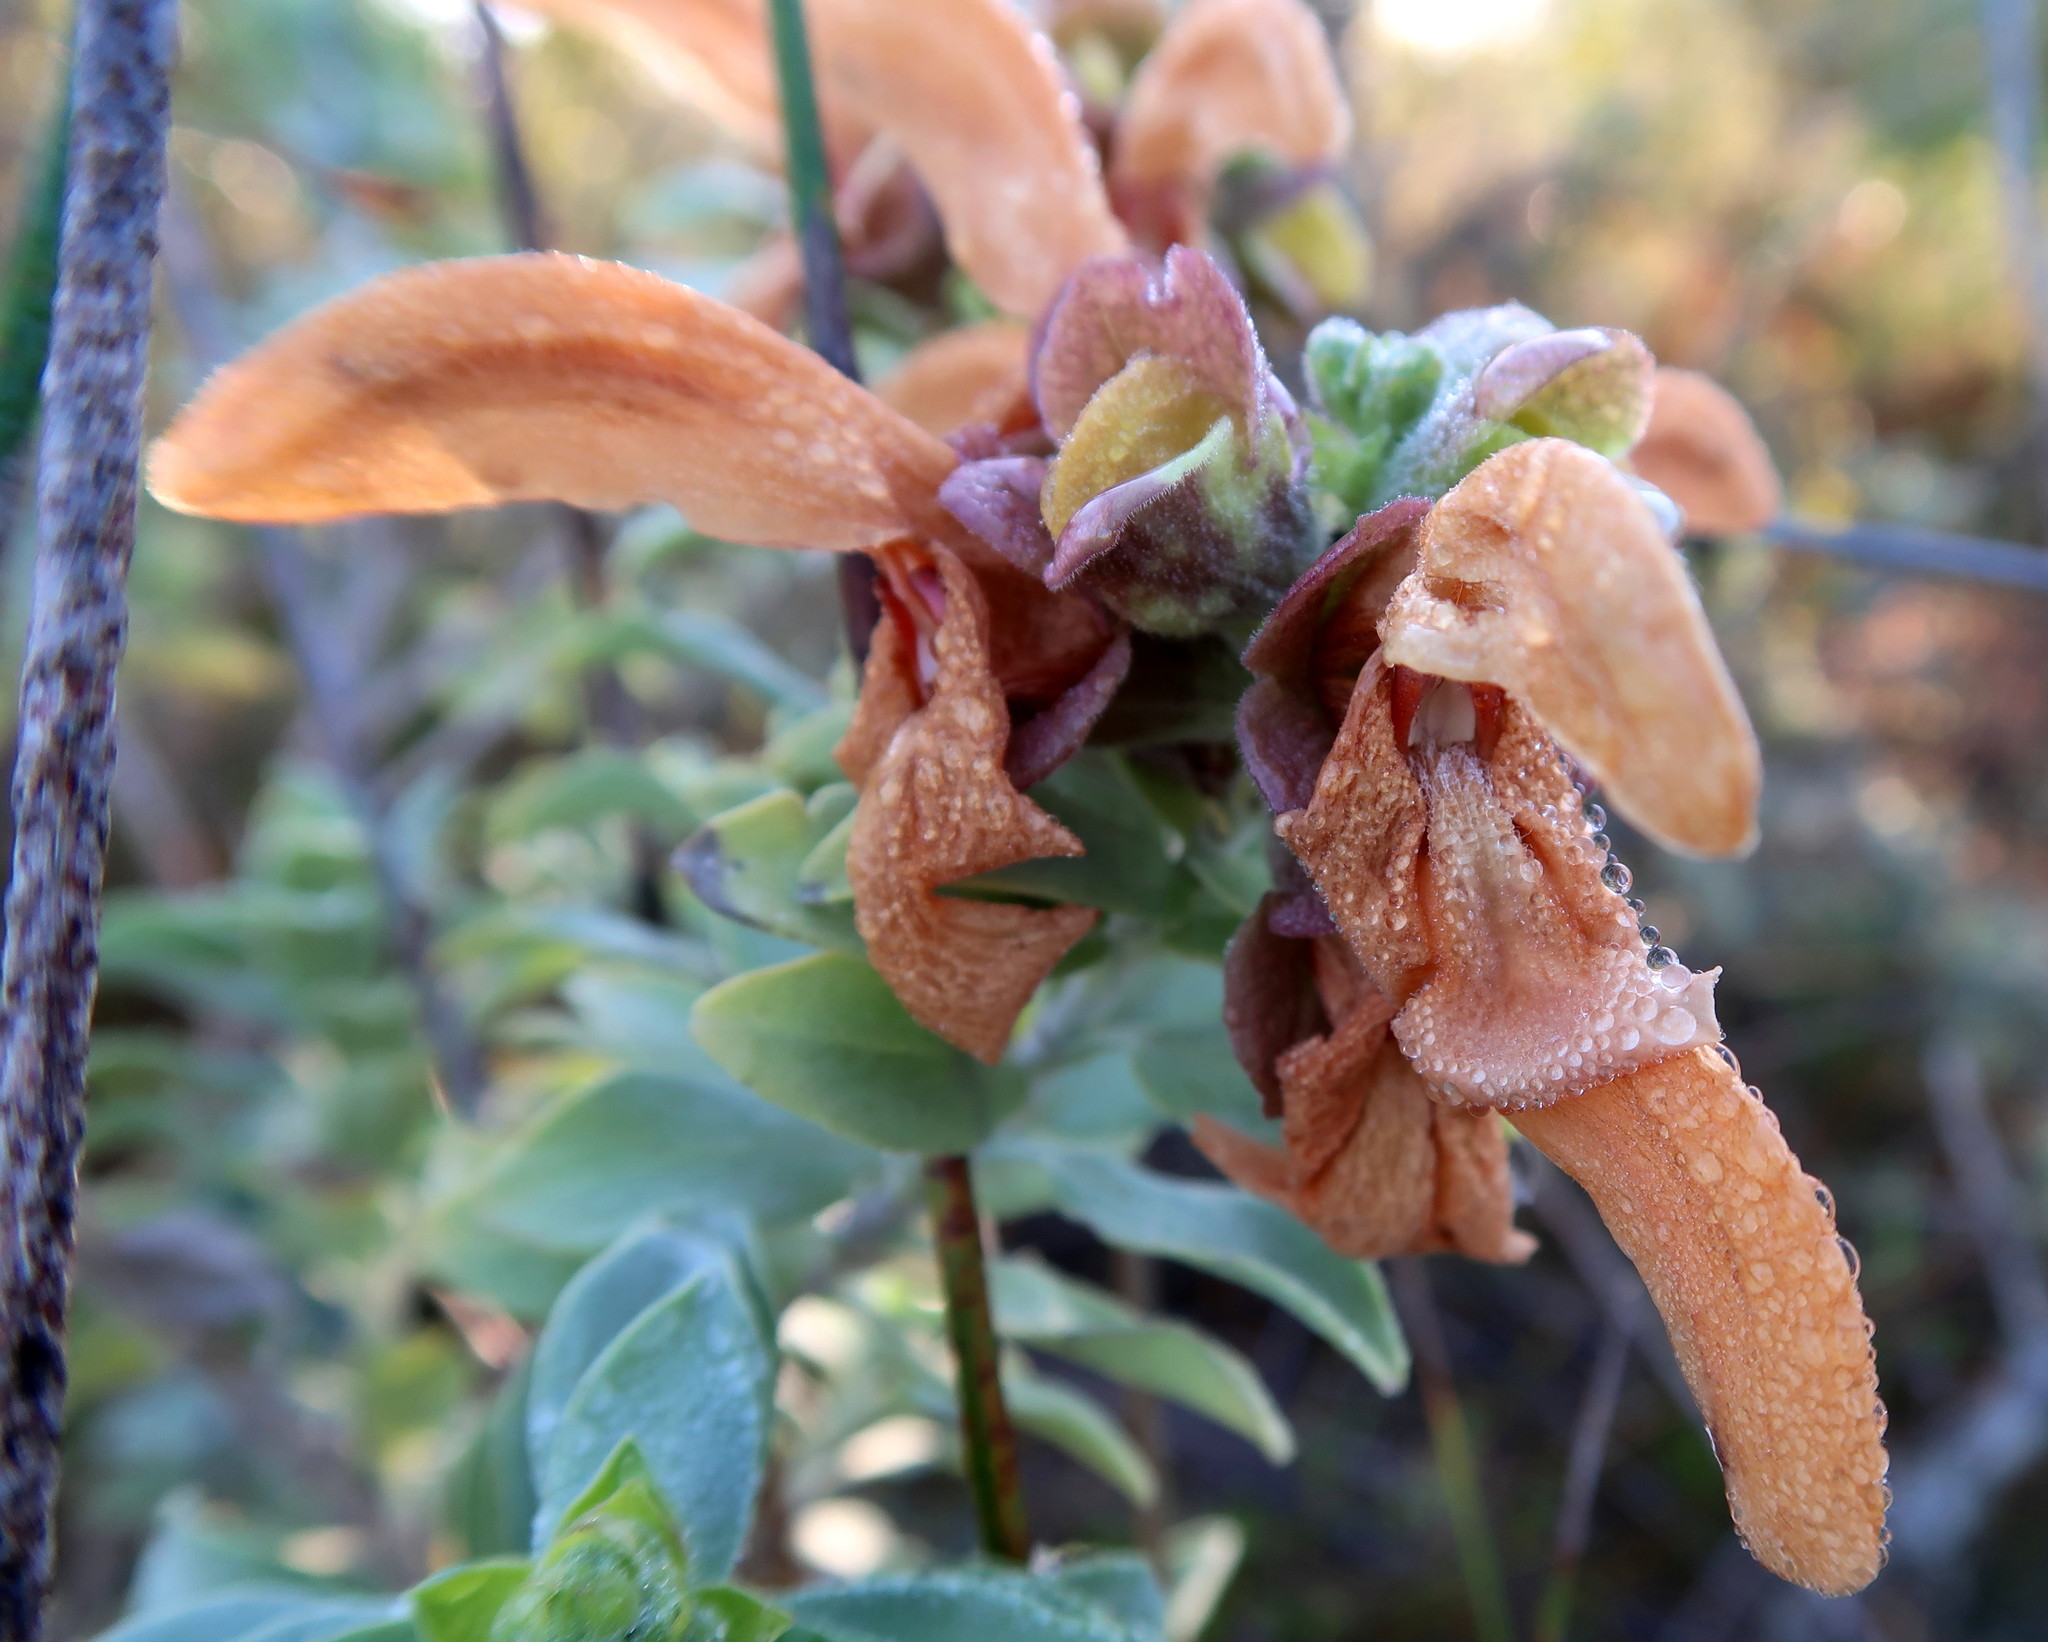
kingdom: Plantae
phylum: Tracheophyta
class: Magnoliopsida
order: Lamiales
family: Lamiaceae
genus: Salvia
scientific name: Salvia aurea
